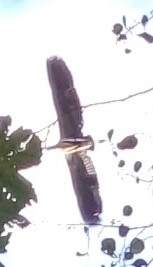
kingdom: Animalia
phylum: Chordata
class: Aves
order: Pelecaniformes
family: Ardeidae
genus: Ardea
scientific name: Ardea cinerea
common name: Grey heron
